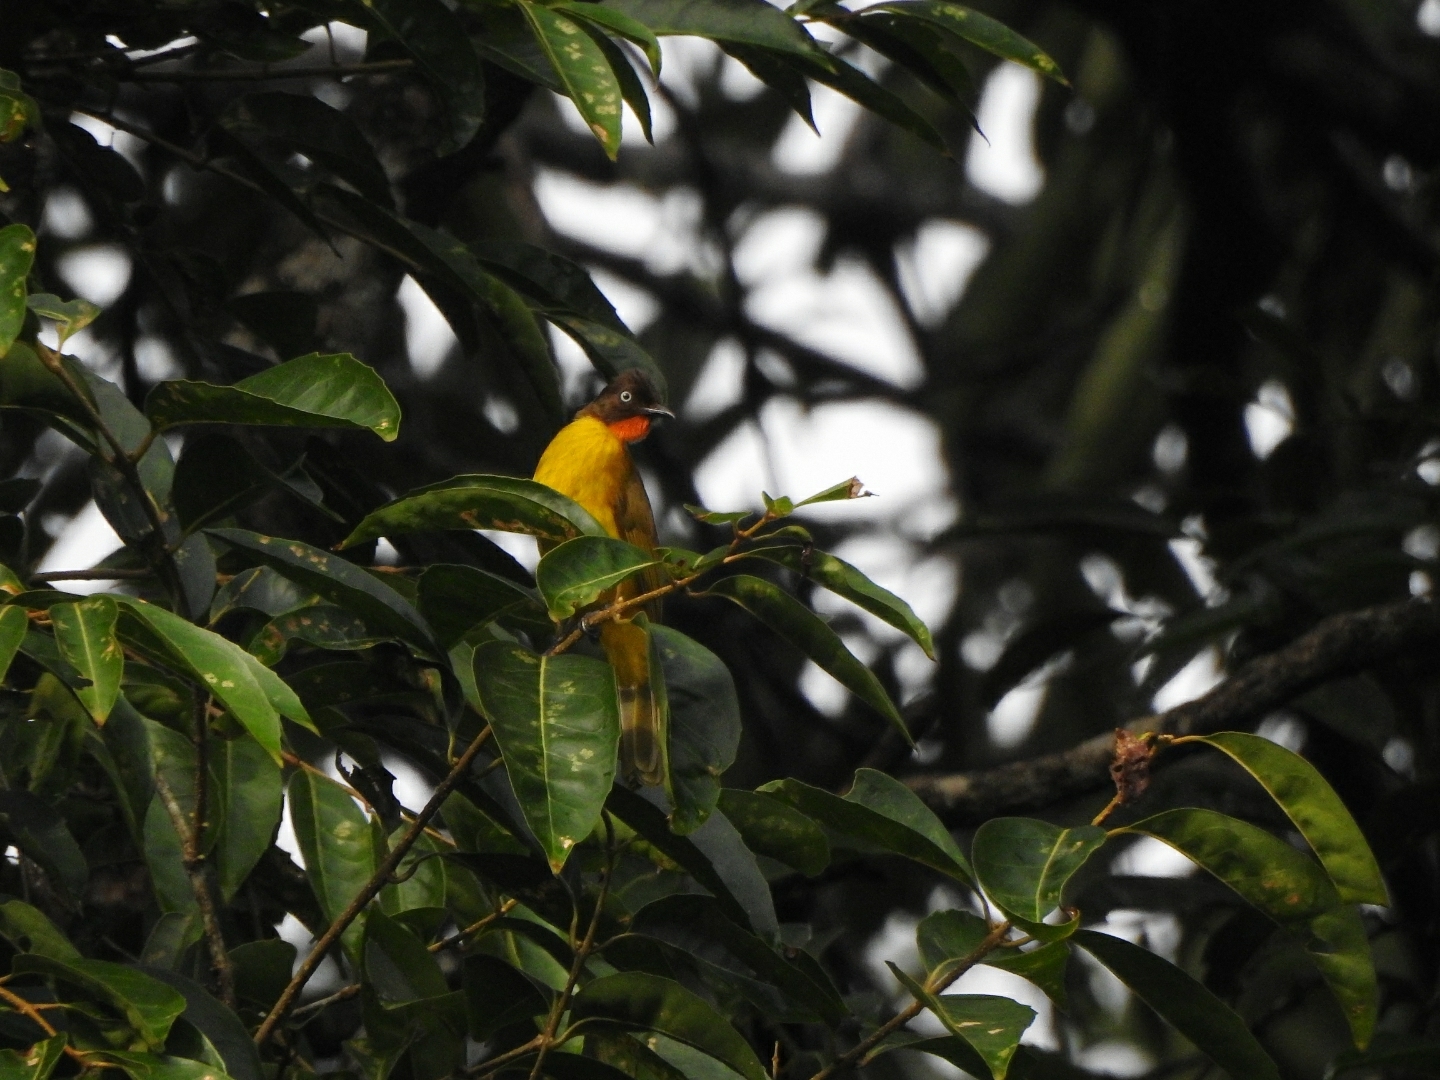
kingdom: Animalia
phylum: Chordata
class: Aves
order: Passeriformes
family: Pycnonotidae
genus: Pycnonotus
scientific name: Pycnonotus gularis
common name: Flame-throated bulbul
